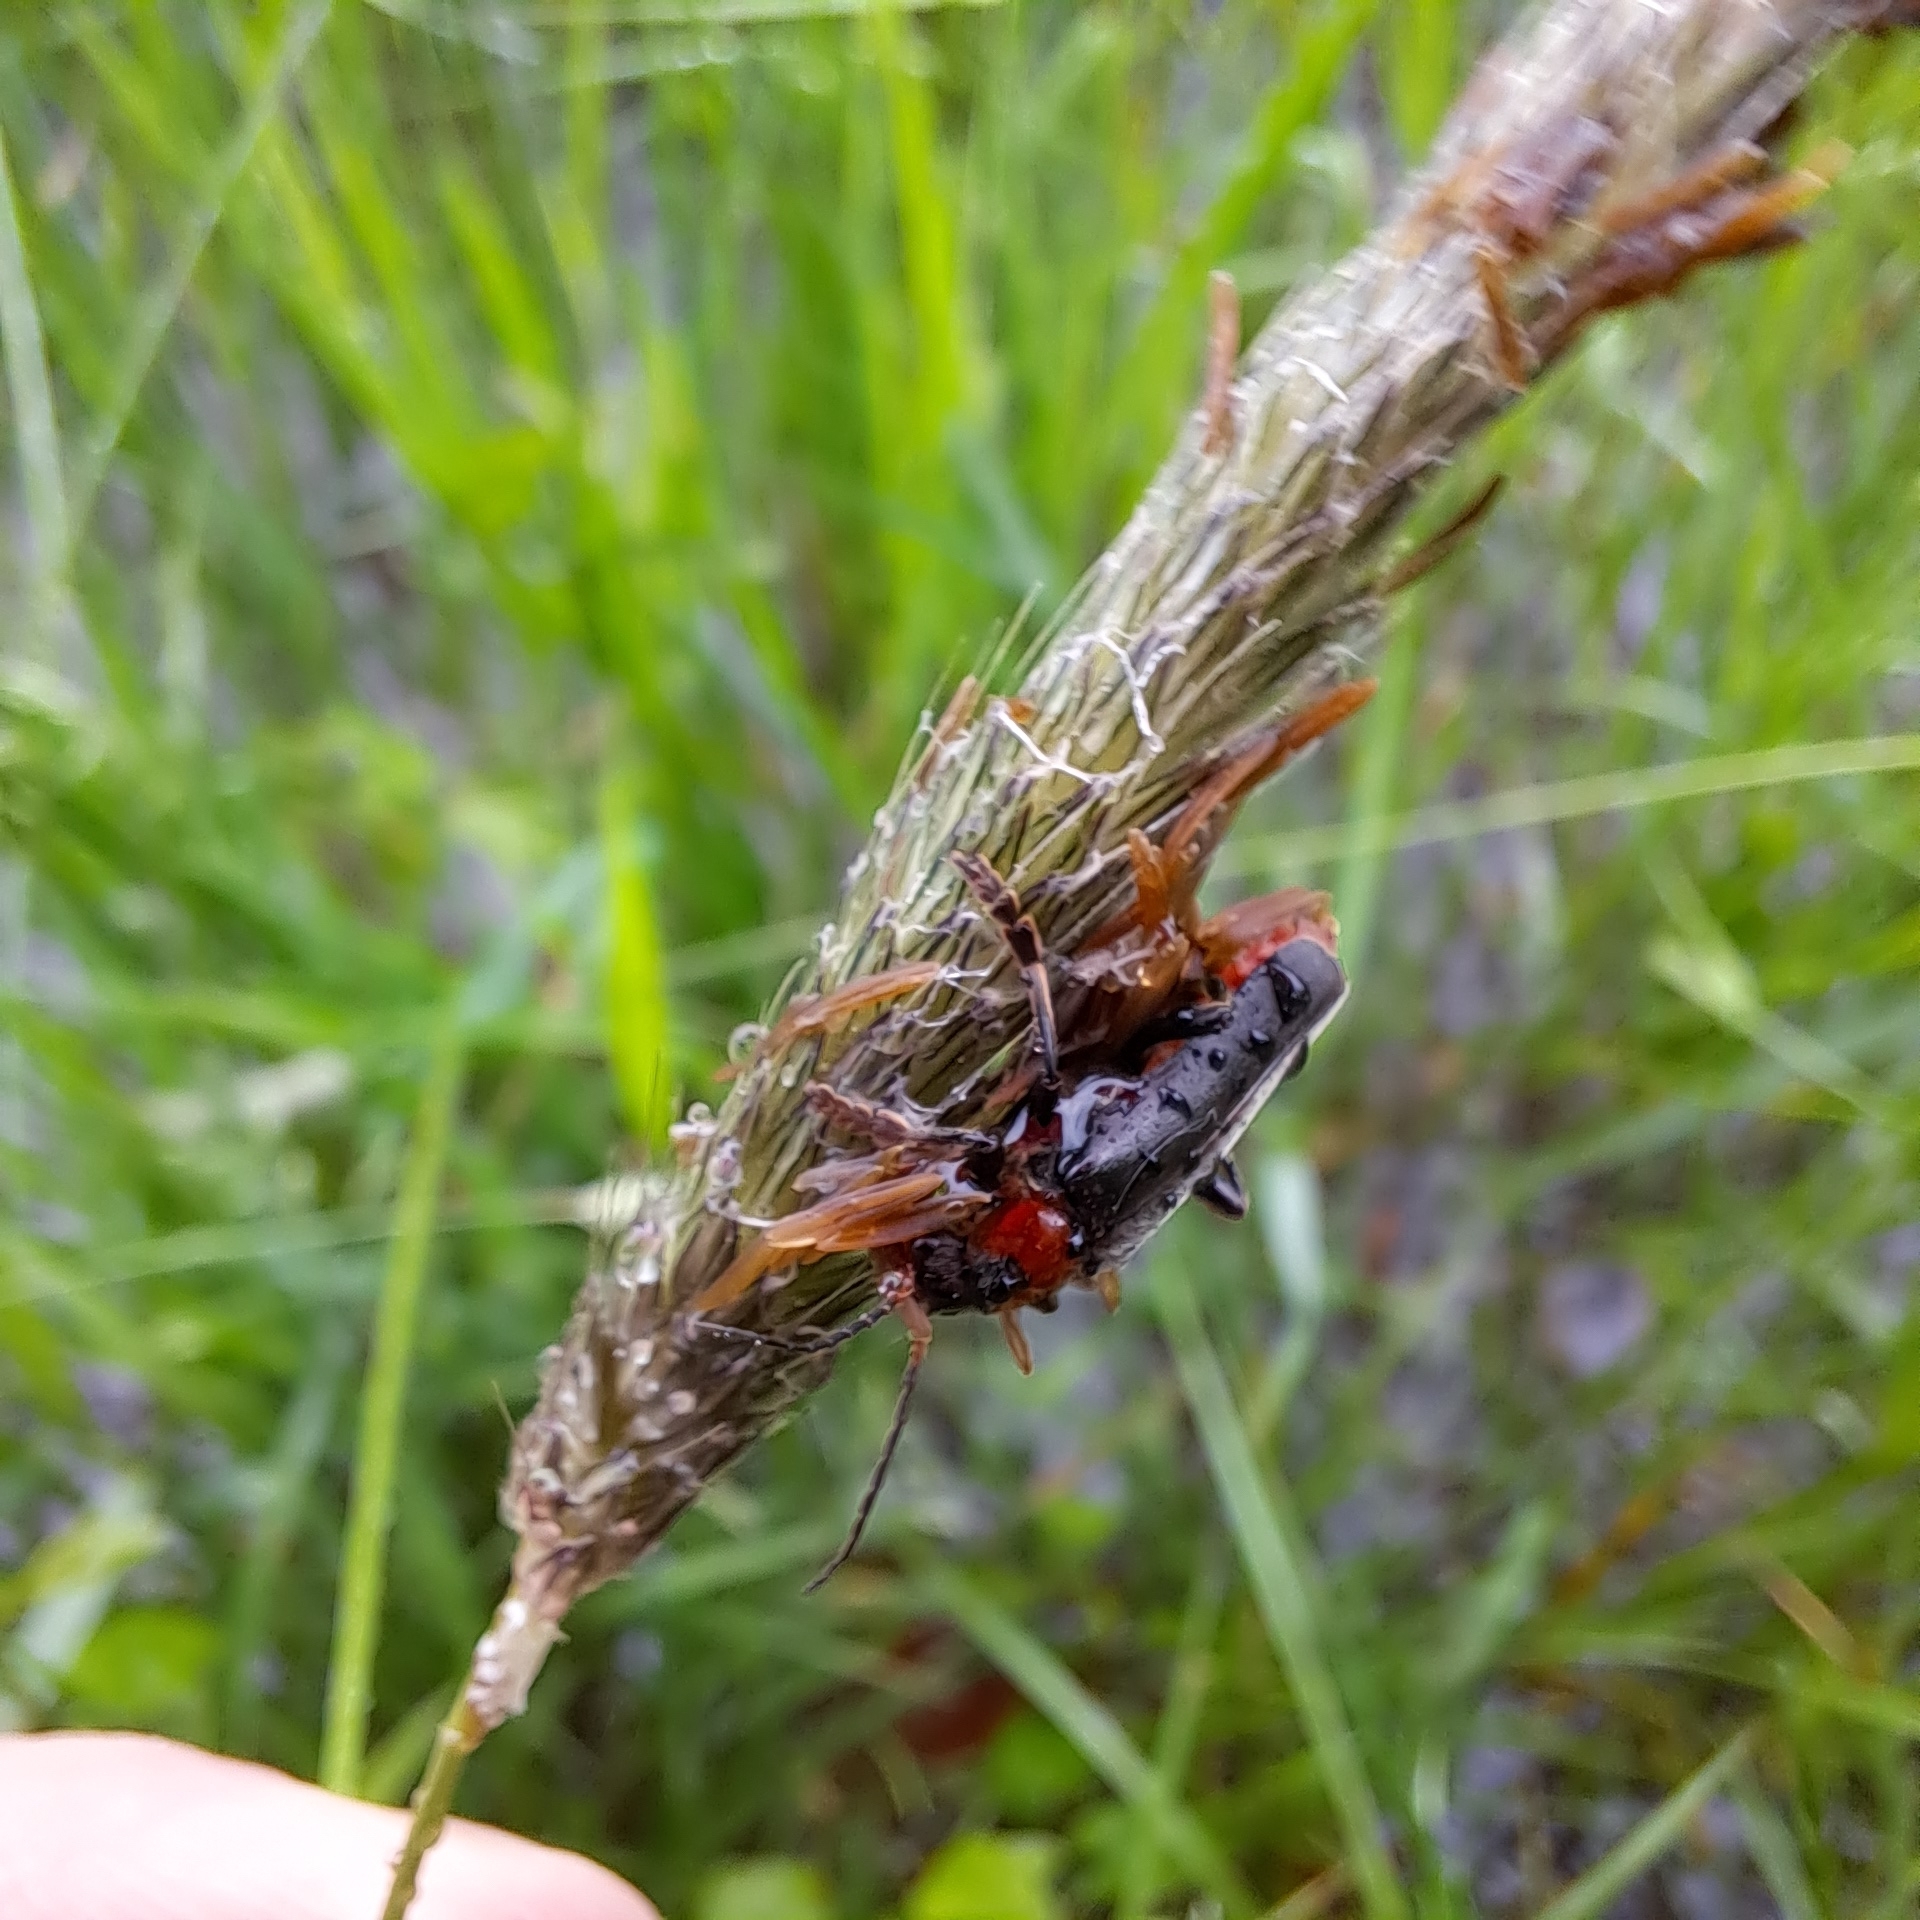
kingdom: Animalia
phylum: Arthropoda
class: Insecta
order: Coleoptera
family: Cantharidae
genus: Cantharis
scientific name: Cantharis fusca
